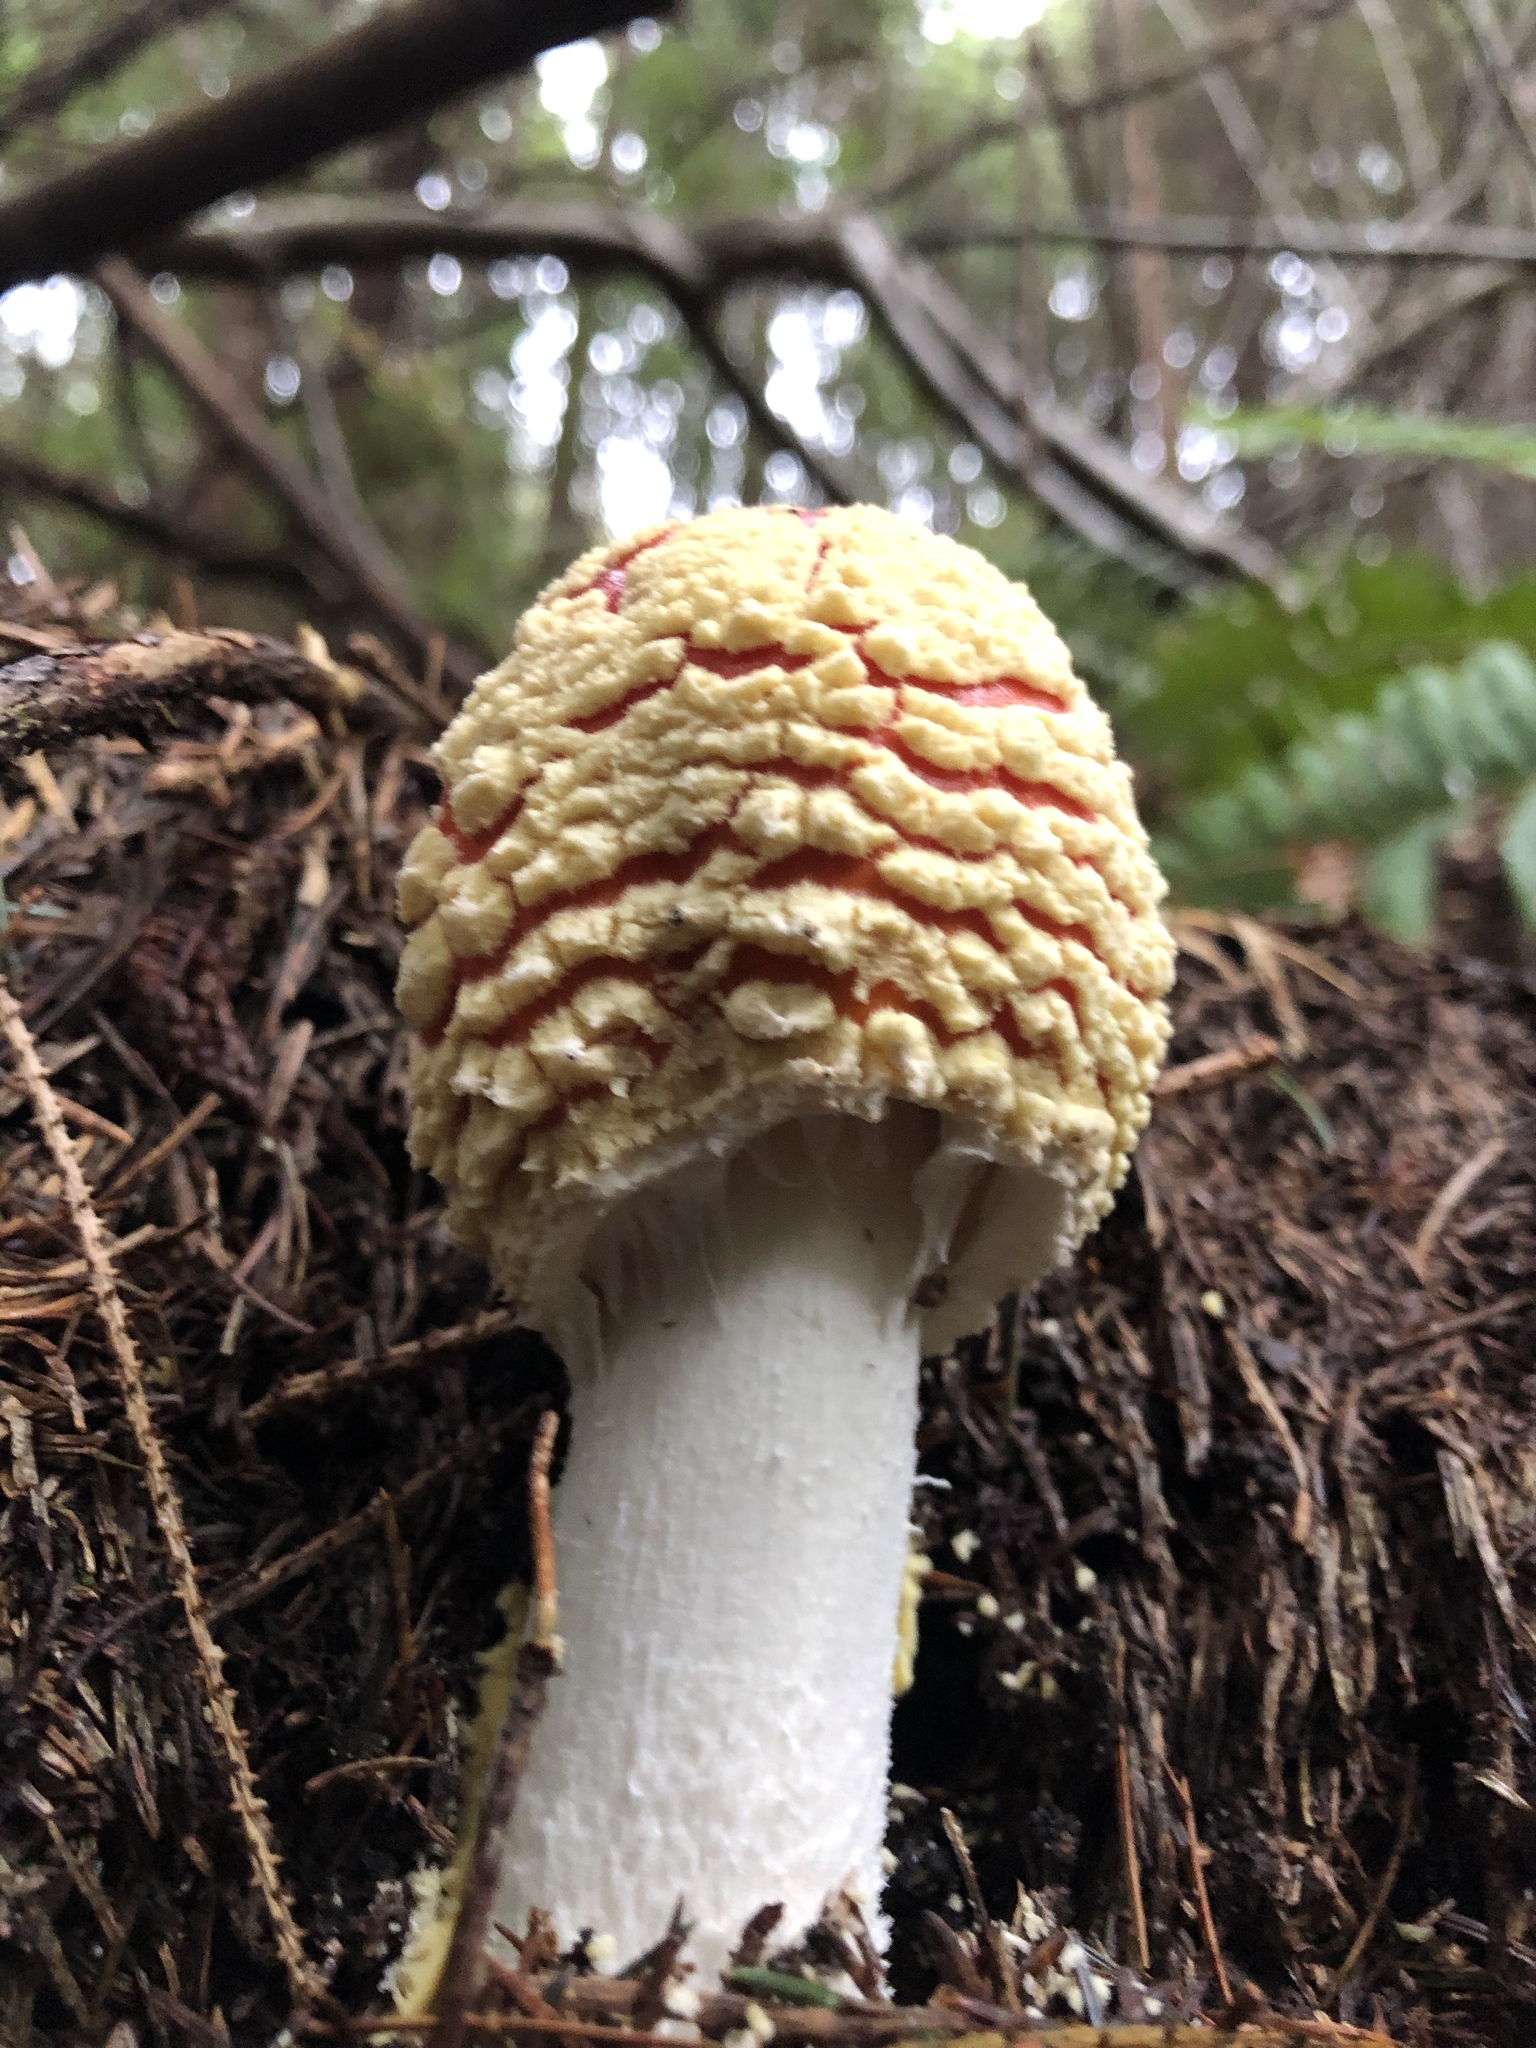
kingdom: Fungi
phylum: Basidiomycota
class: Agaricomycetes
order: Agaricales
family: Amanitaceae
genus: Amanita
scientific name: Amanita muscaria
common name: Fly agaric
